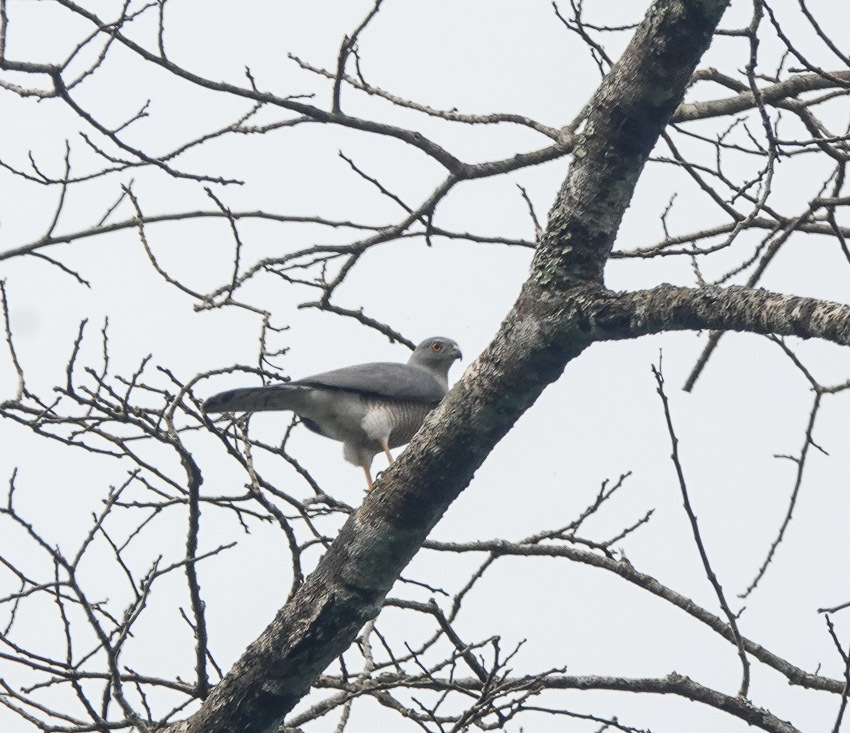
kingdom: Animalia
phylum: Chordata
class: Aves
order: Accipitriformes
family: Accipitridae
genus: Accipiter
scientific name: Accipiter badius
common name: Shikra
